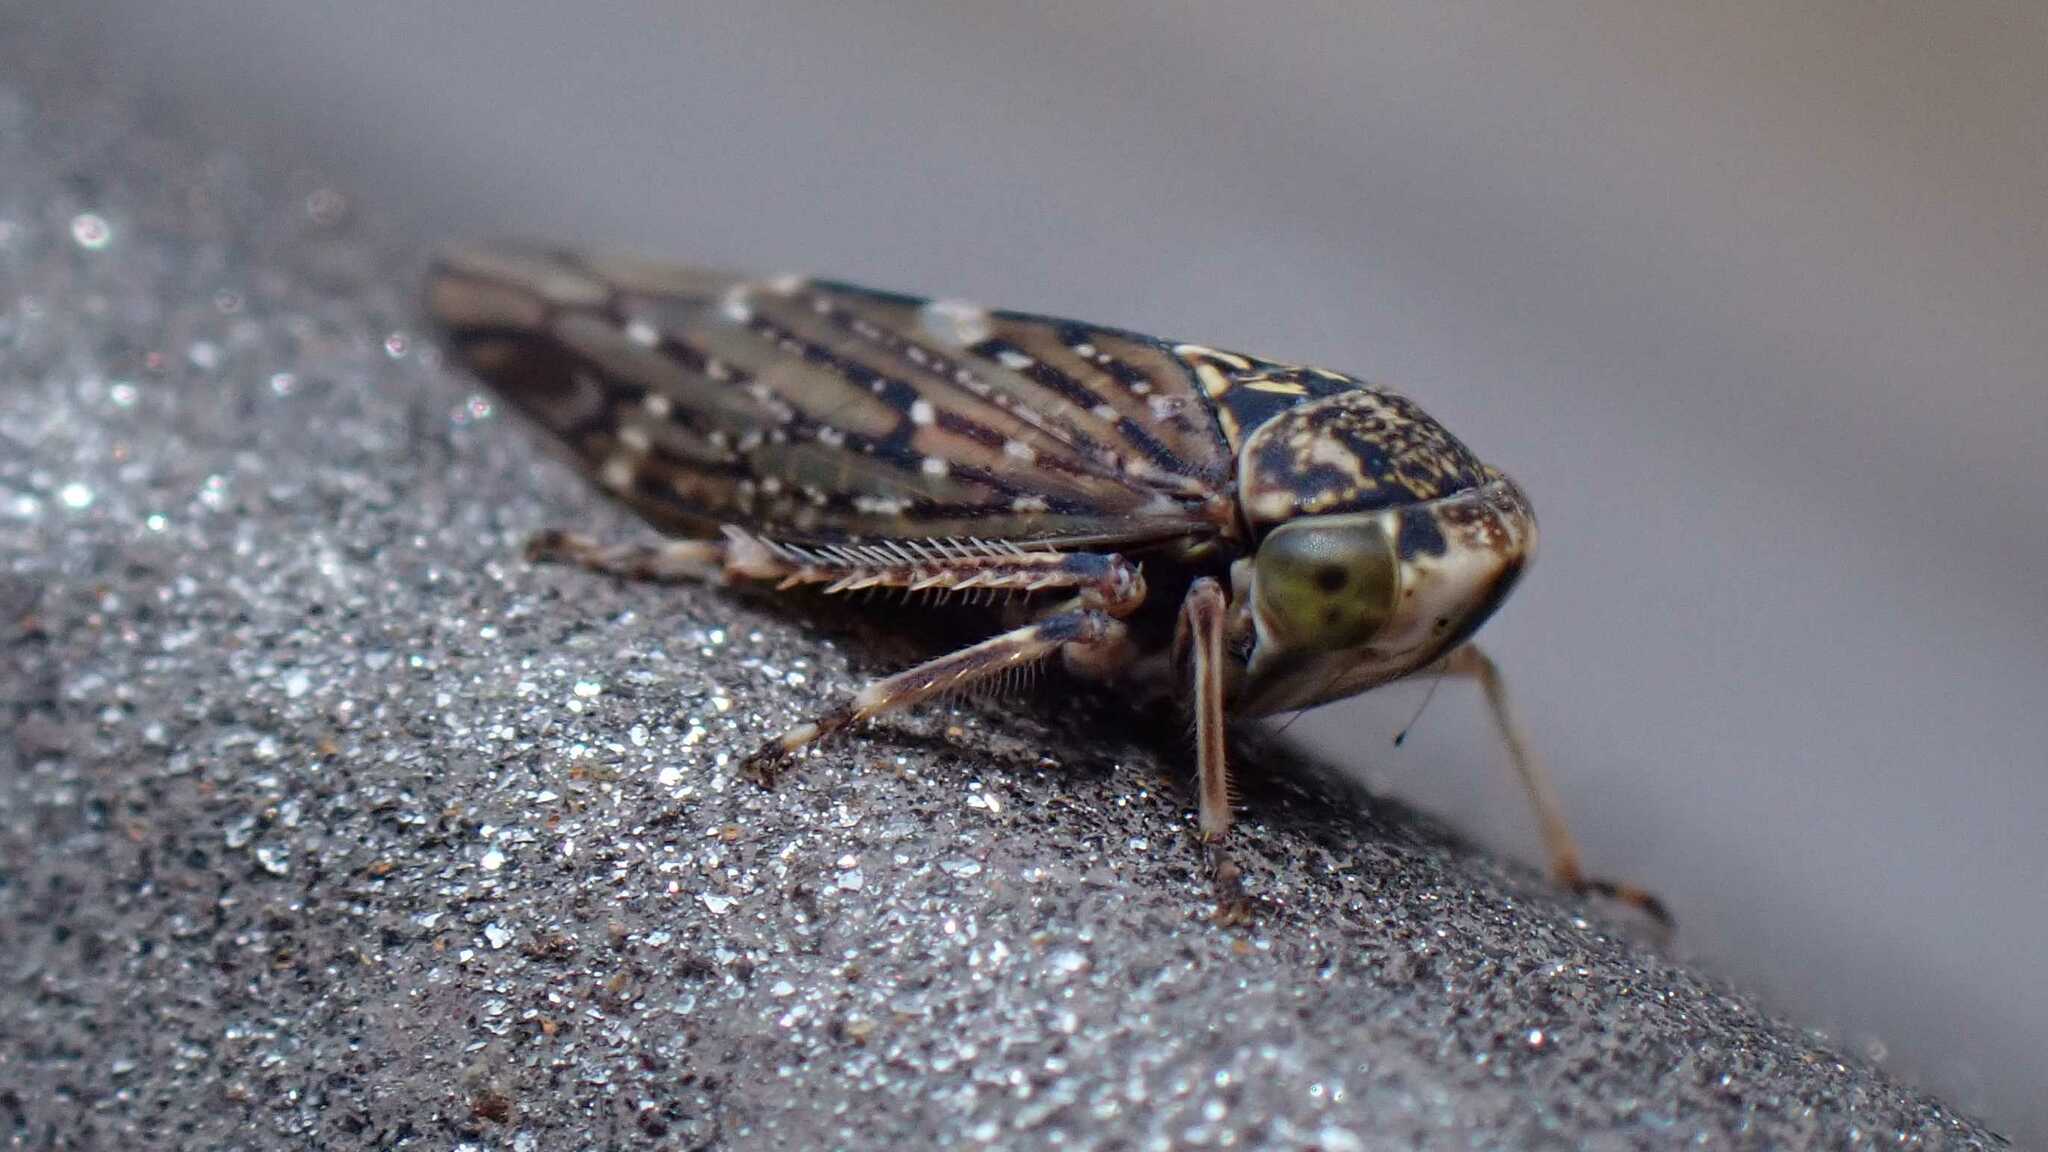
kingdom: Animalia
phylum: Arthropoda
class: Insecta
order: Hemiptera
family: Cicadellidae
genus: Acericerus
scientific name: Acericerus heydenii
